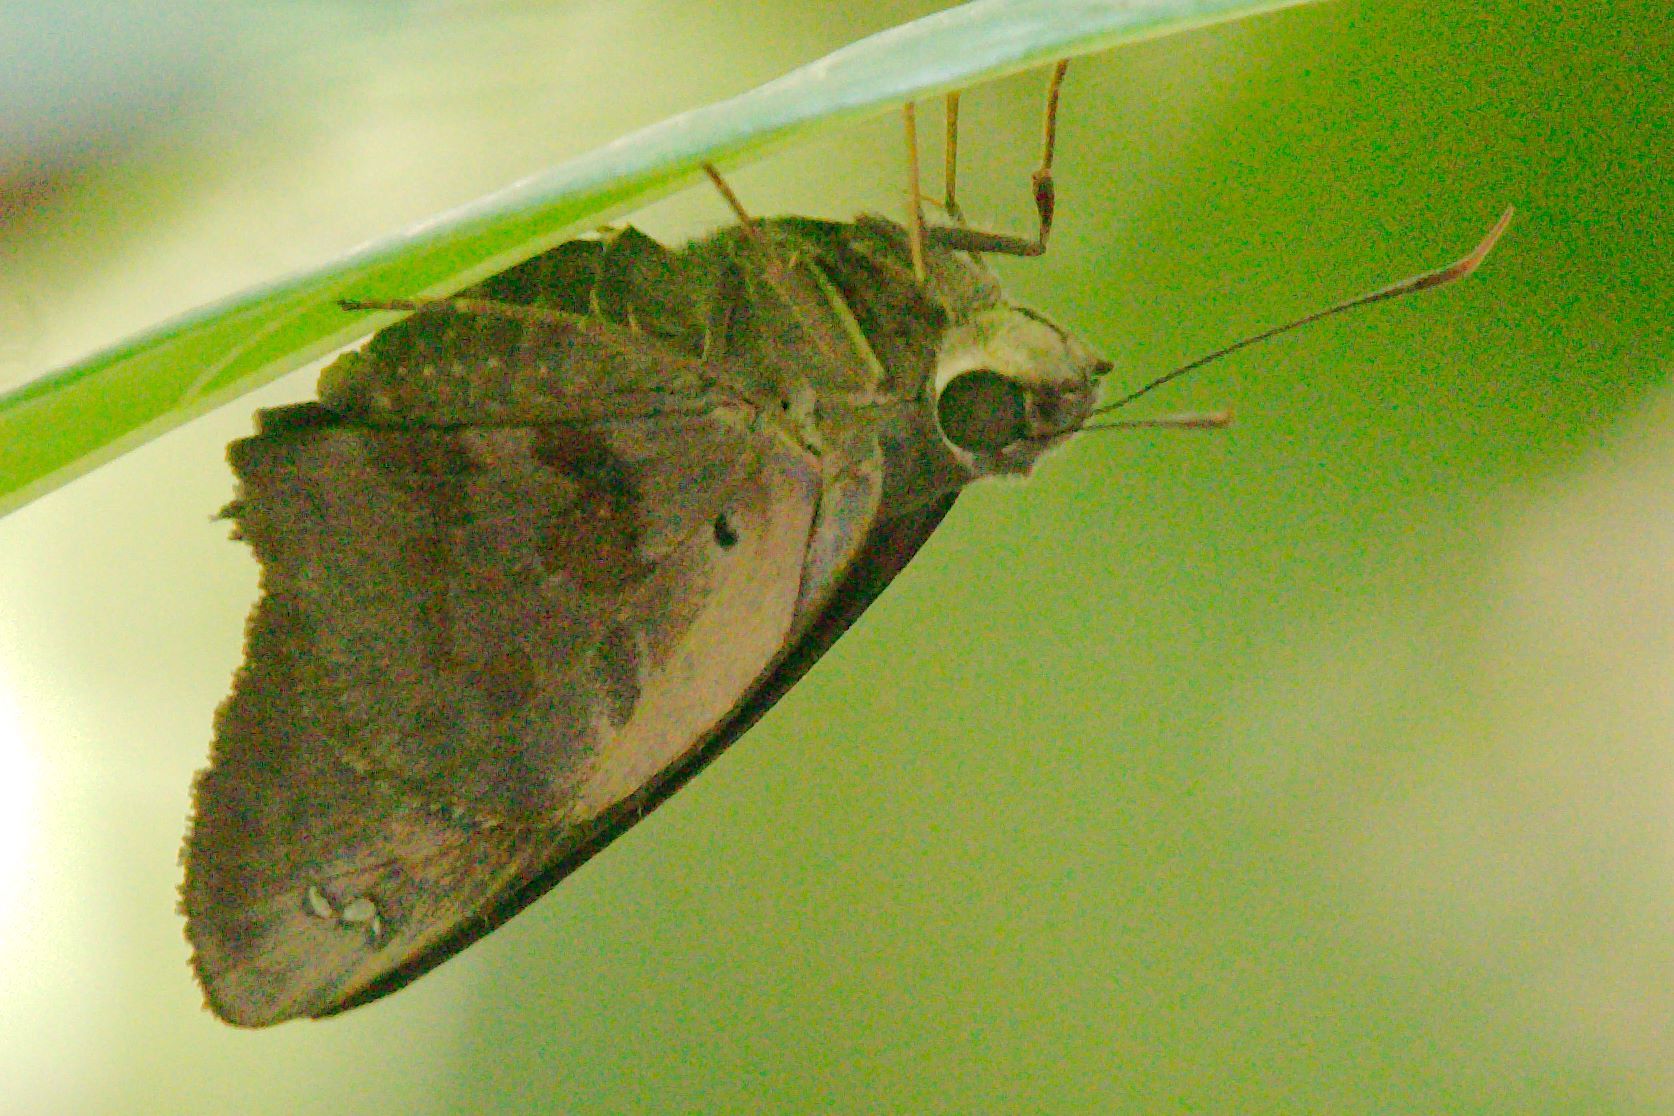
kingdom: Animalia
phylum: Arthropoda
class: Insecta
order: Lepidoptera
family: Hesperiidae
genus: Polygonus
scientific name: Polygonus leo
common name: Hammoch skipper
